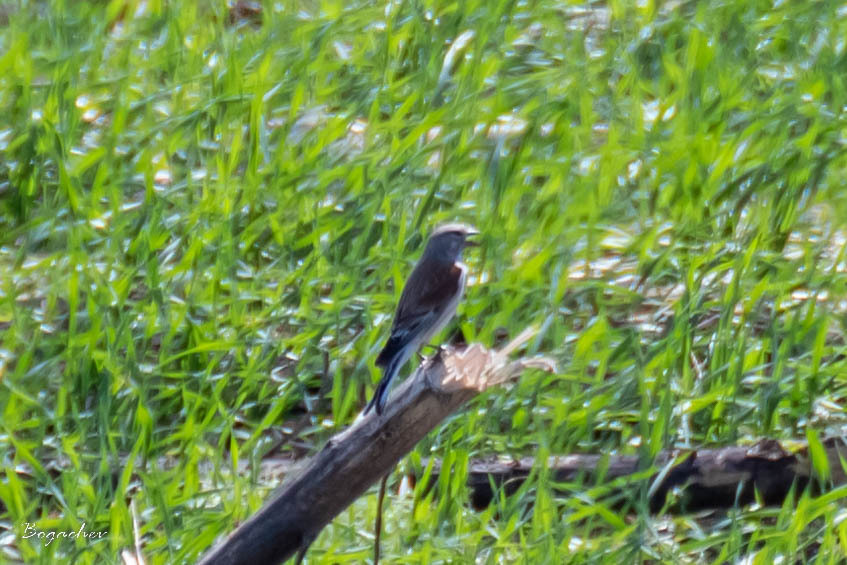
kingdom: Animalia
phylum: Chordata
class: Aves
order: Passeriformes
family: Fringillidae
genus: Linaria
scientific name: Linaria cannabina
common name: Common linnet
